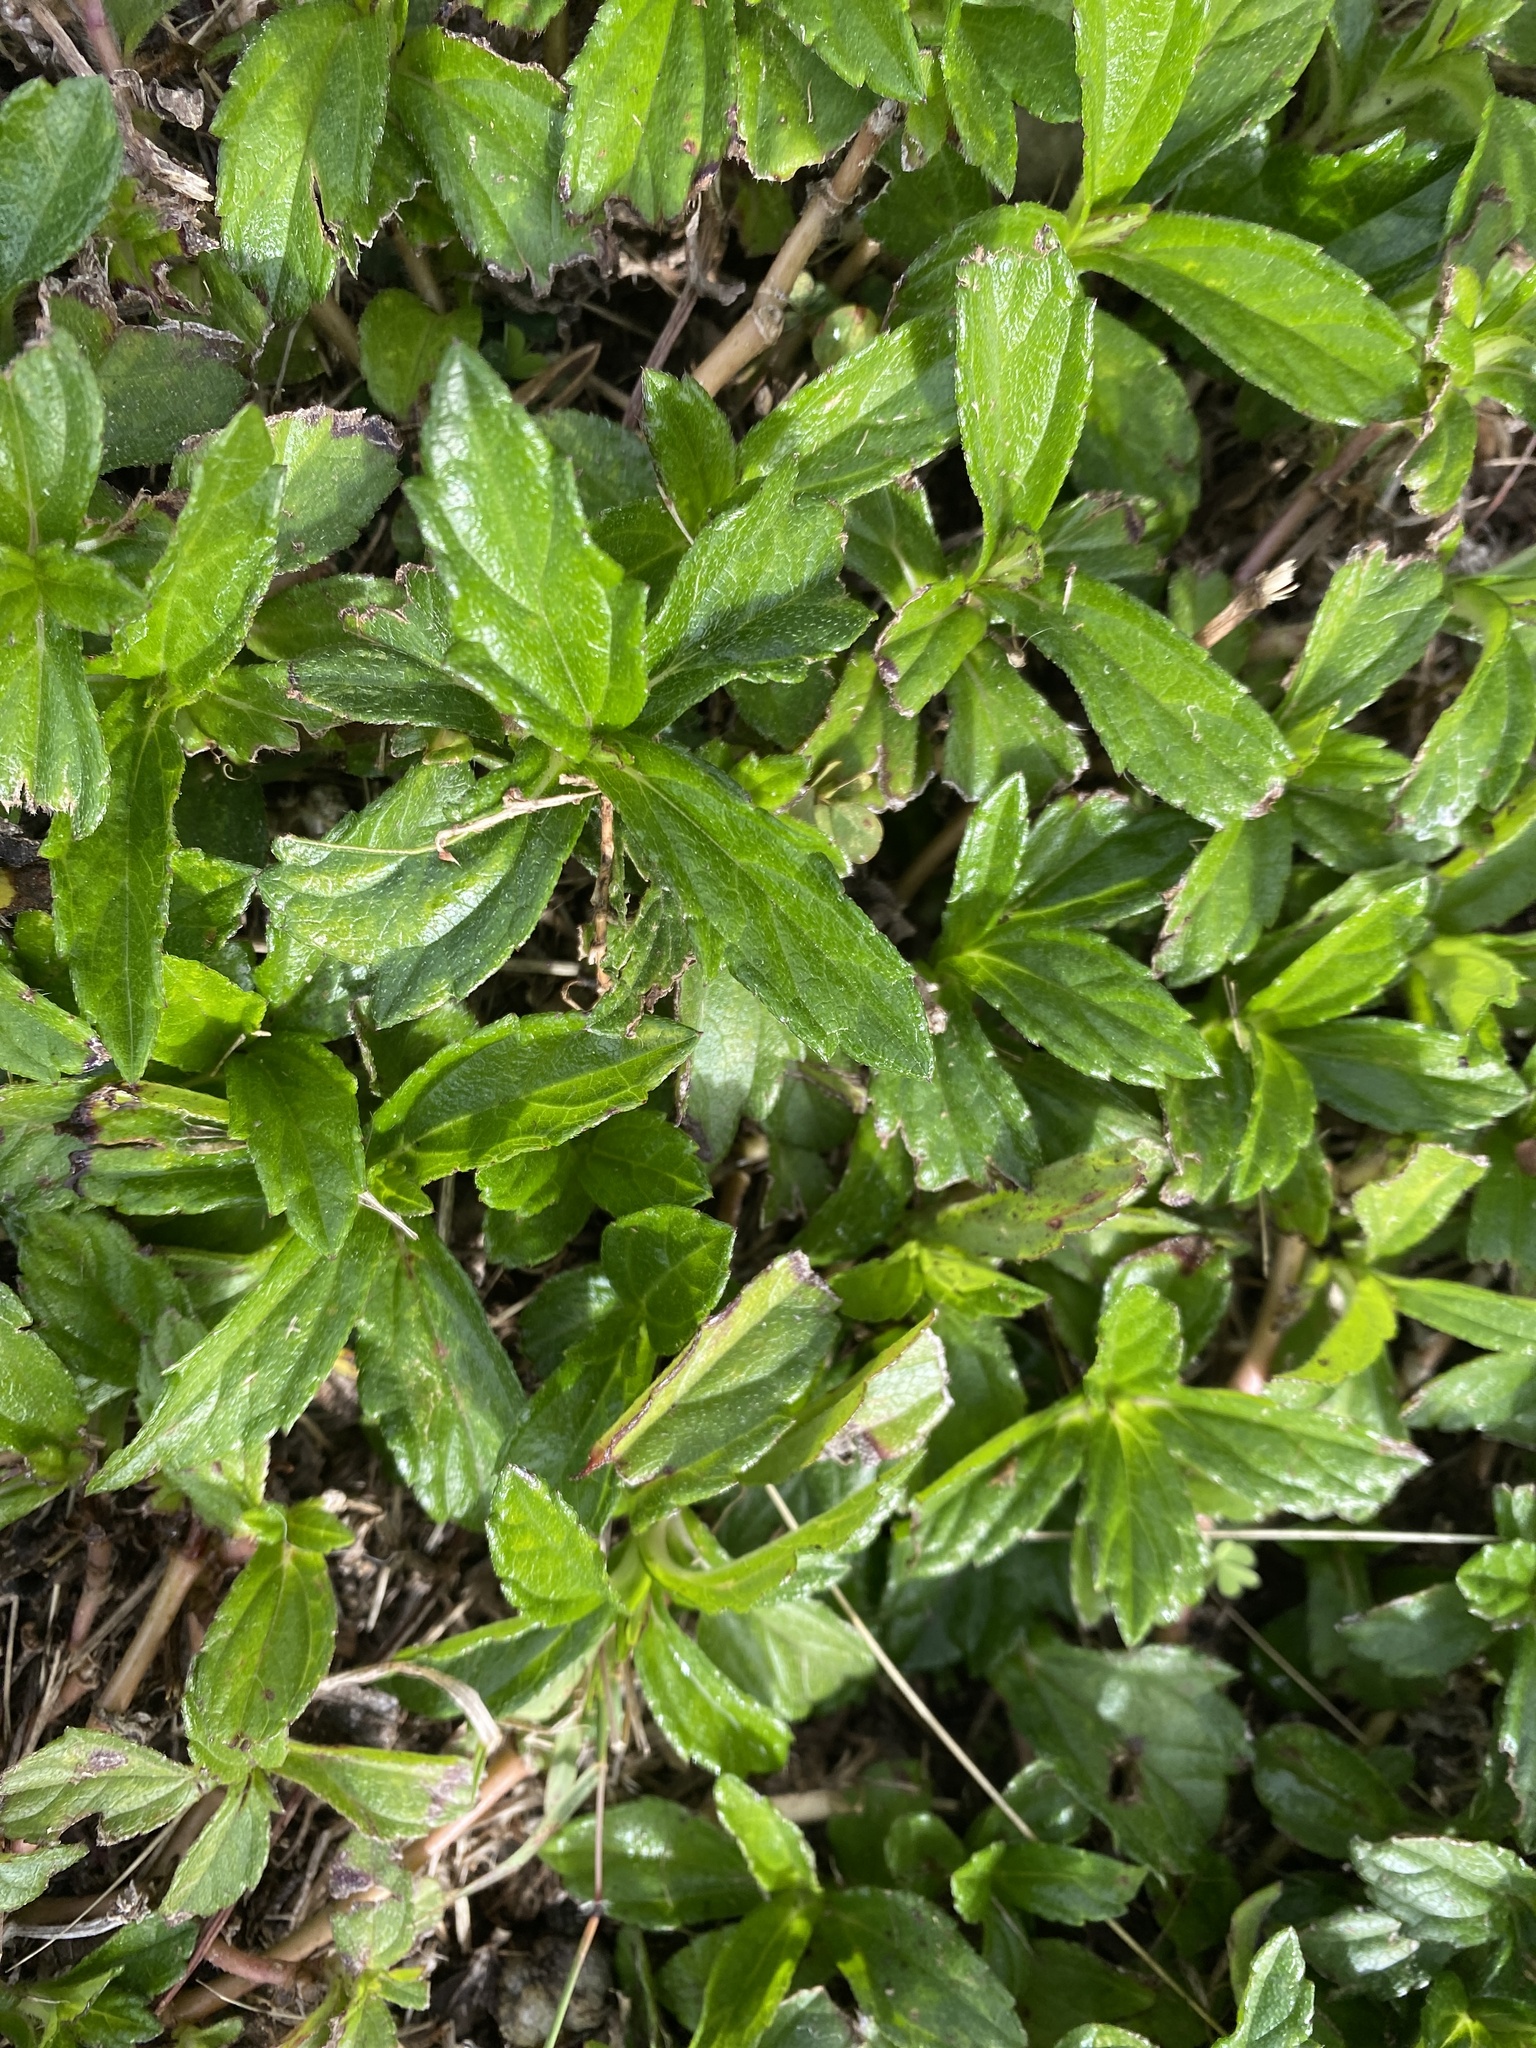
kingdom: Plantae
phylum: Tracheophyta
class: Magnoliopsida
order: Asterales
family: Asteraceae
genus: Sphagneticola
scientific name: Sphagneticola trilobata
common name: Bay biscayne creeping-oxeye
